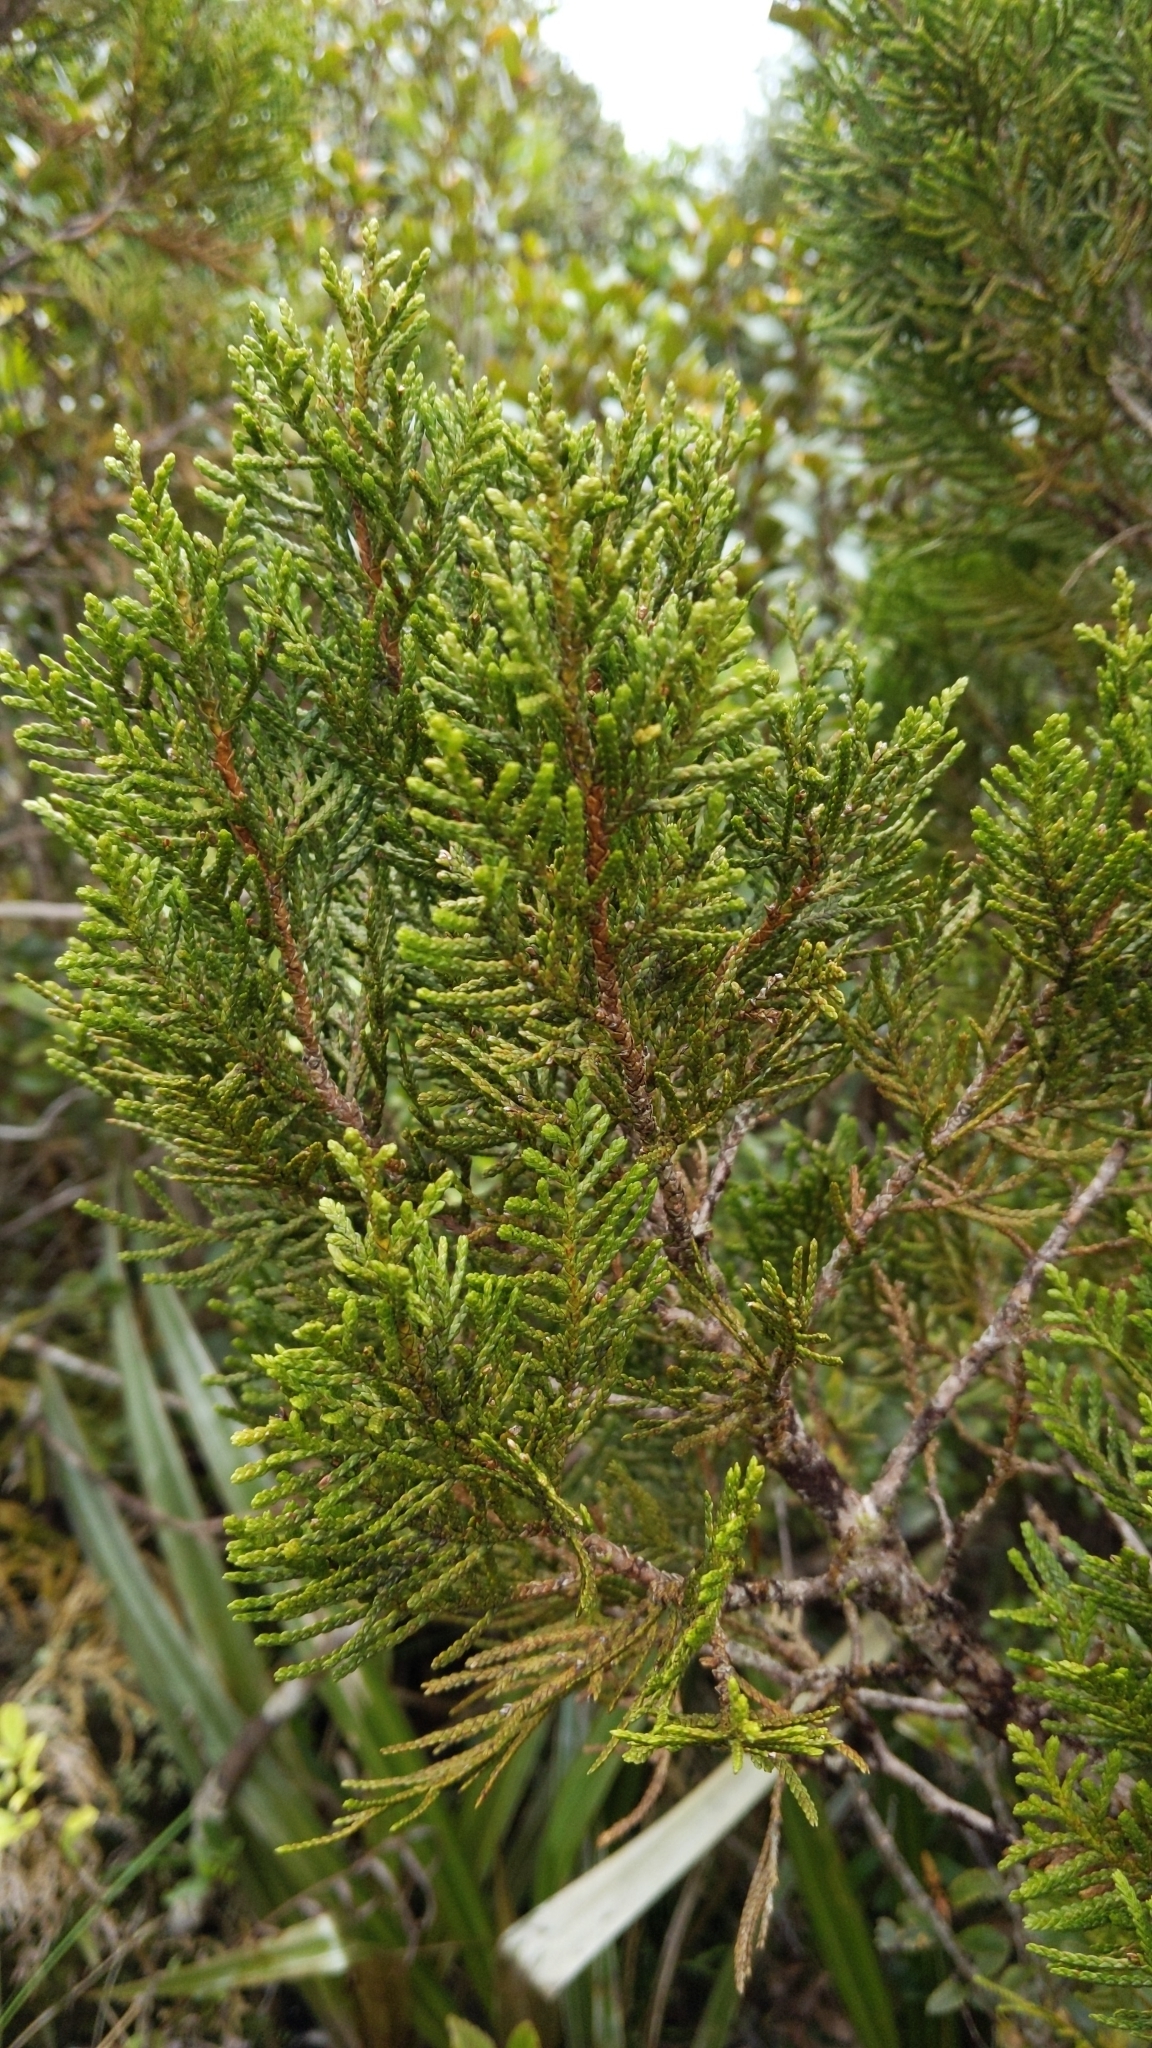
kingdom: Plantae
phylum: Tracheophyta
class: Pinopsida
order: Pinales
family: Cupressaceae
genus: Libocedrus
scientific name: Libocedrus bidwillii
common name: Cedar
